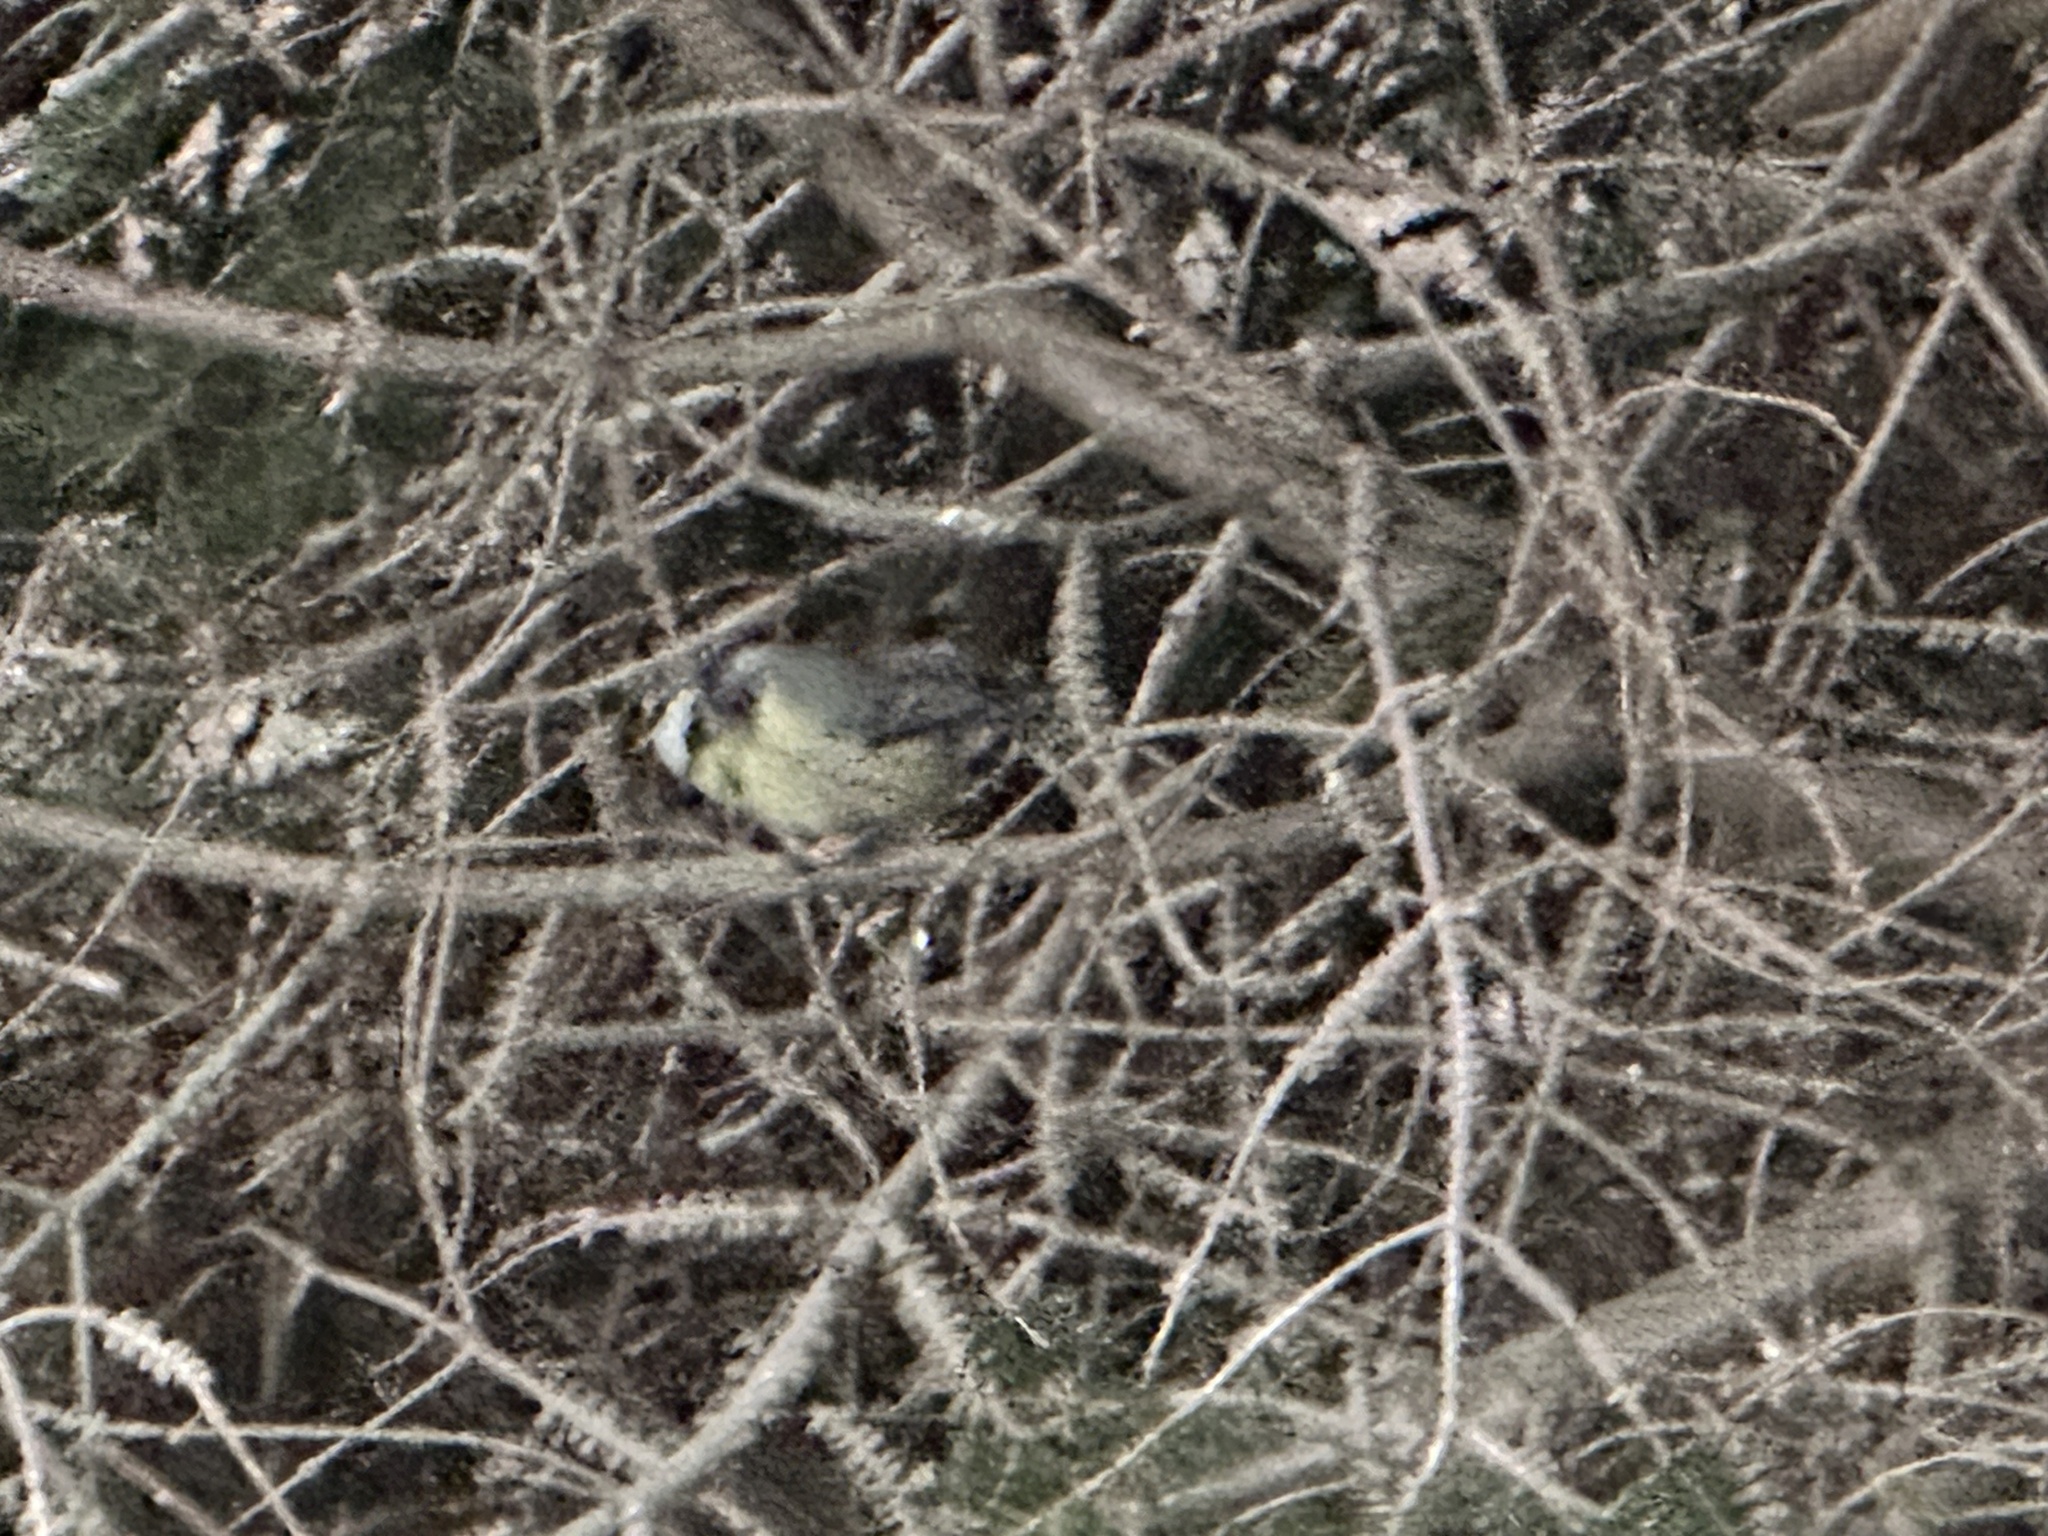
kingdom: Animalia
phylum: Chordata
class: Aves
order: Passeriformes
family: Paridae
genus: Cyanistes
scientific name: Cyanistes caeruleus
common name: Eurasian blue tit
